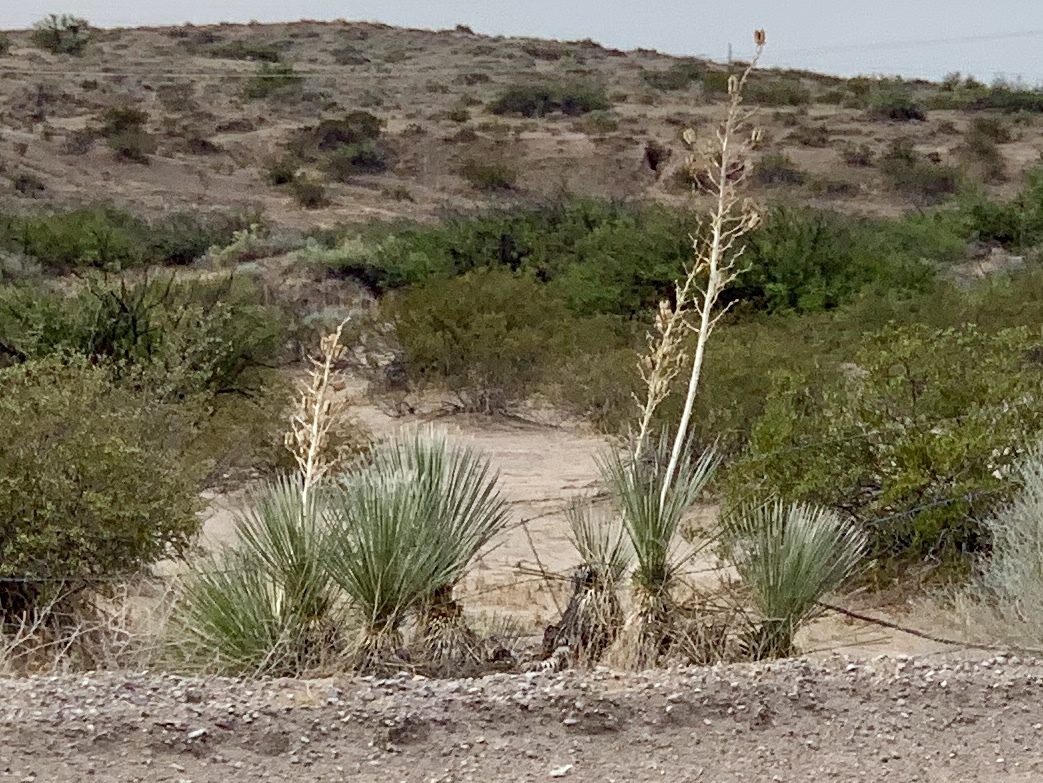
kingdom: Plantae
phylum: Tracheophyta
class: Liliopsida
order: Asparagales
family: Asparagaceae
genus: Yucca
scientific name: Yucca elata
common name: Palmella
